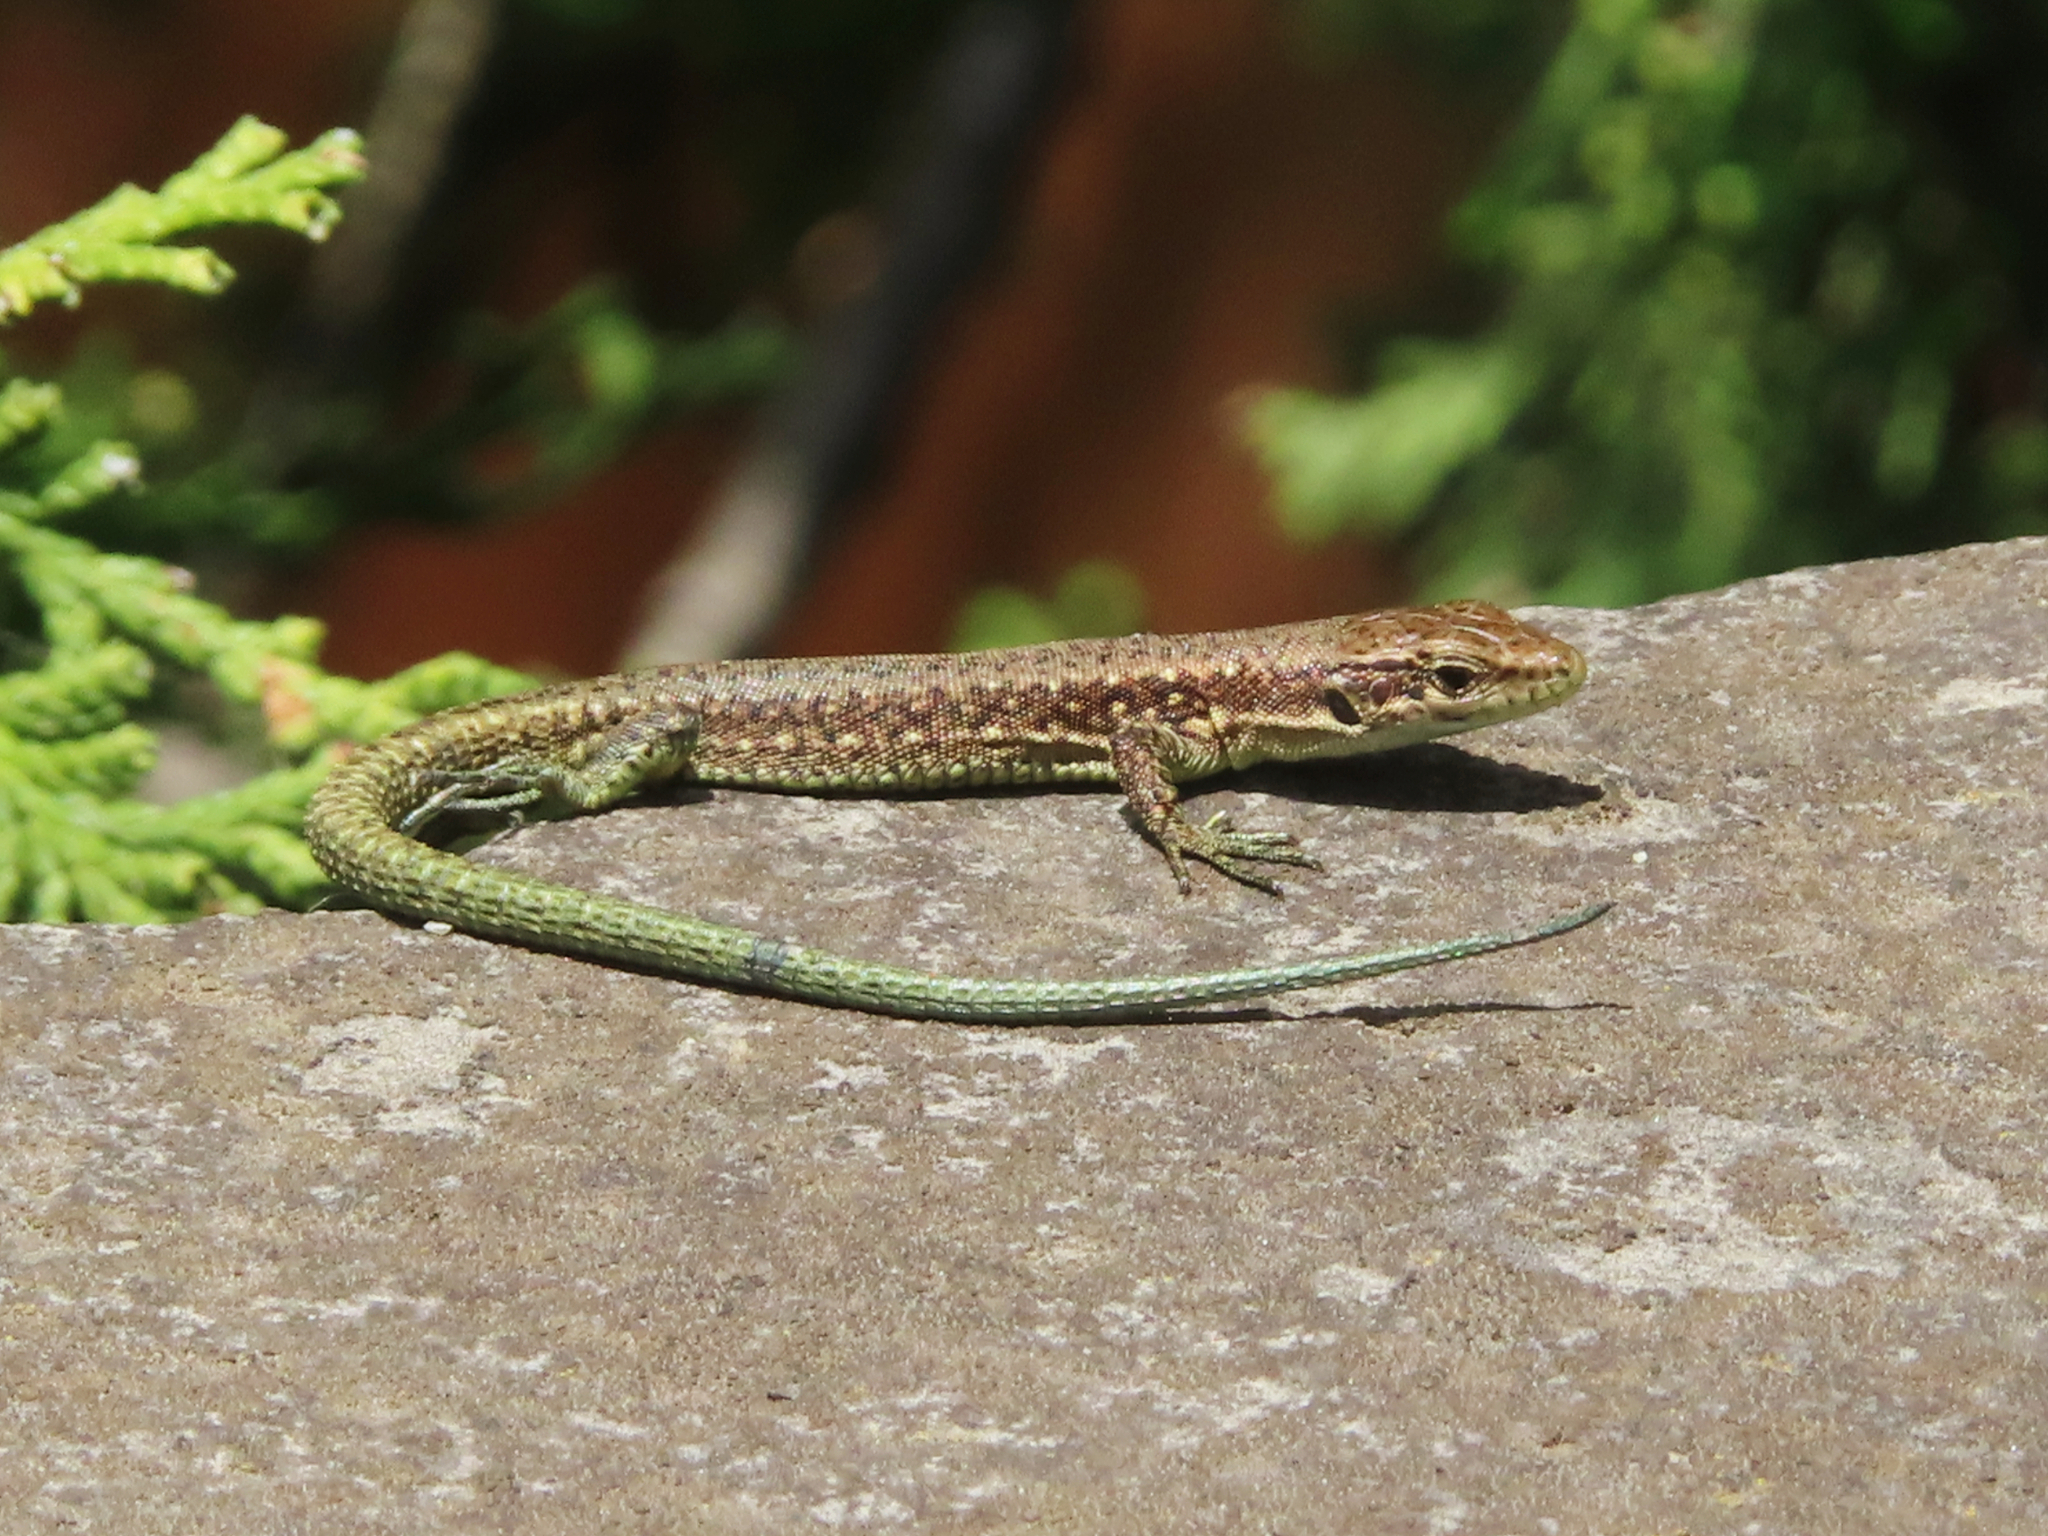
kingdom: Animalia
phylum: Chordata
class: Squamata
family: Lacertidae
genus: Darevskia
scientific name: Darevskia armeniaca
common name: Armenian lizard
